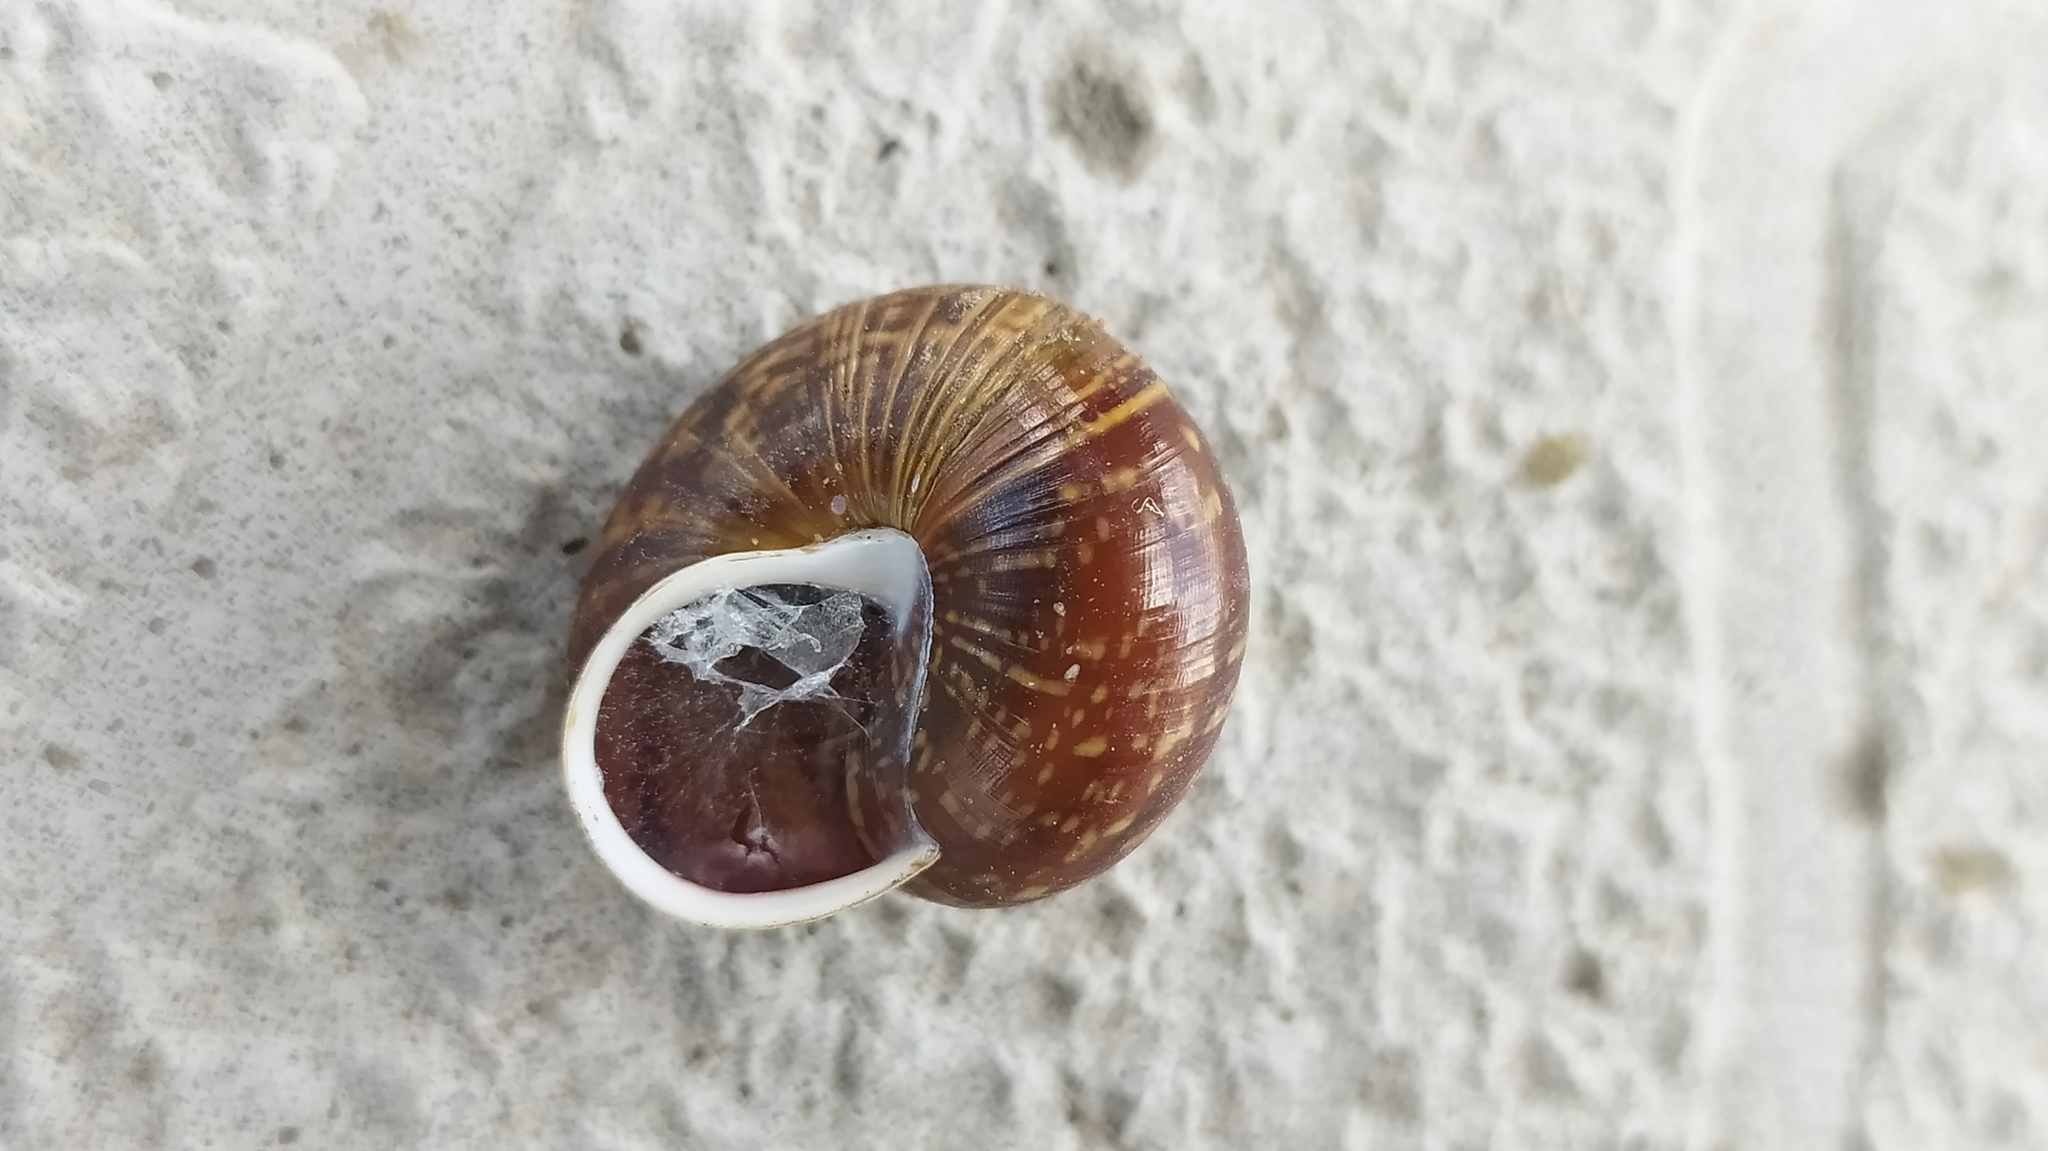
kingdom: Animalia
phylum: Mollusca
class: Gastropoda
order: Stylommatophora
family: Helicidae
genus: Arianta
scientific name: Arianta arbustorum
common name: Copse snail
